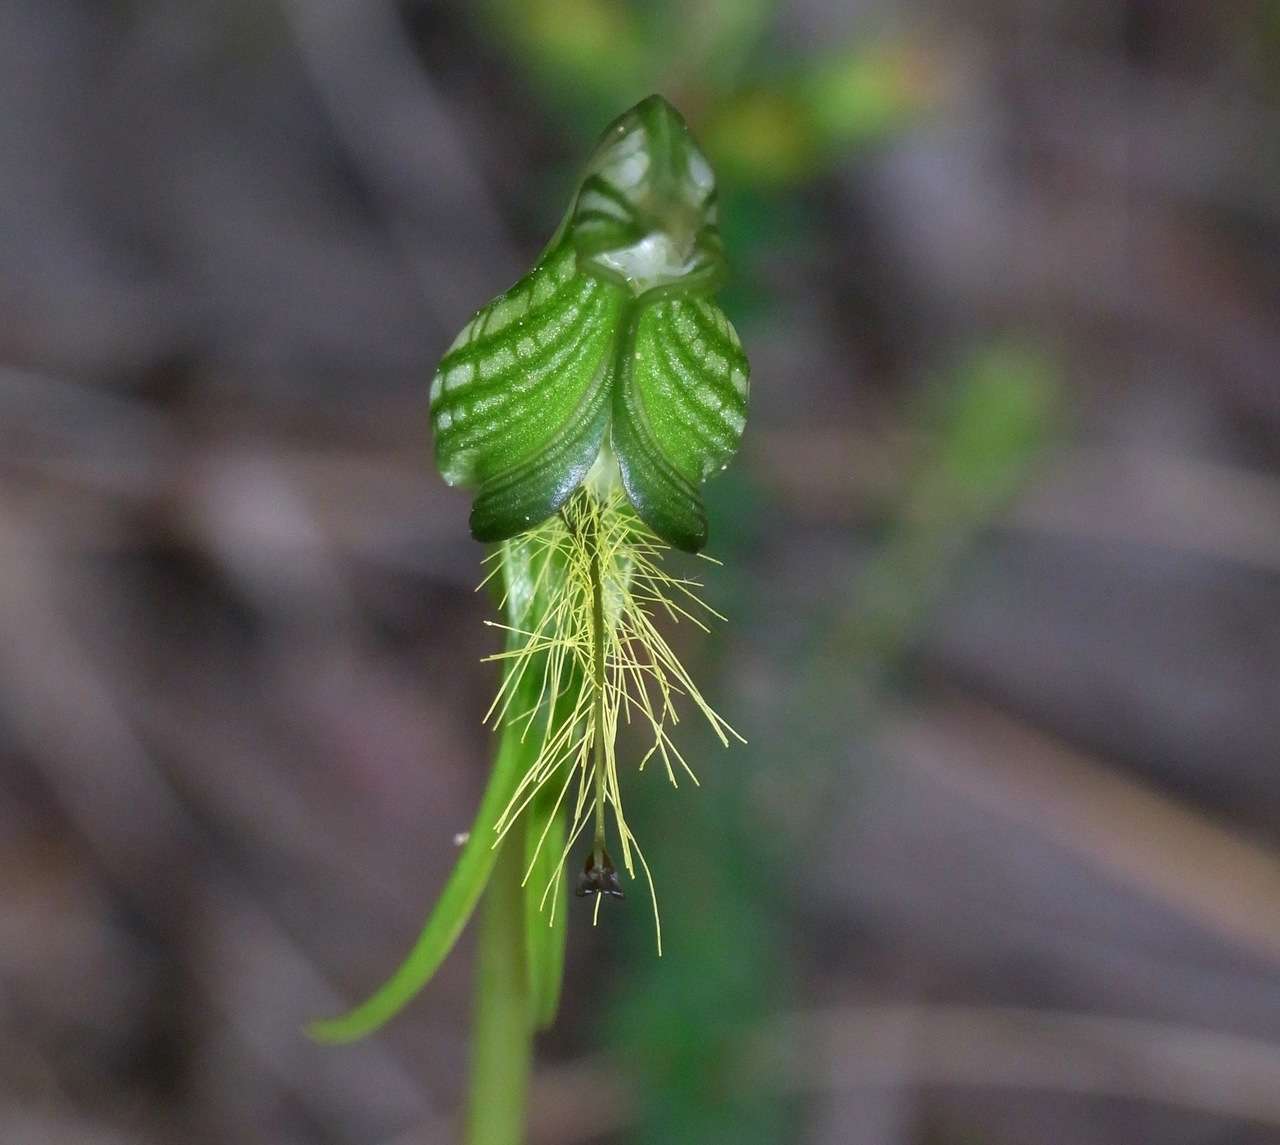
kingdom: Plantae
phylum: Tracheophyta
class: Liliopsida
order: Asparagales
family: Orchidaceae
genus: Pterostylis
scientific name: Pterostylis plumosa
